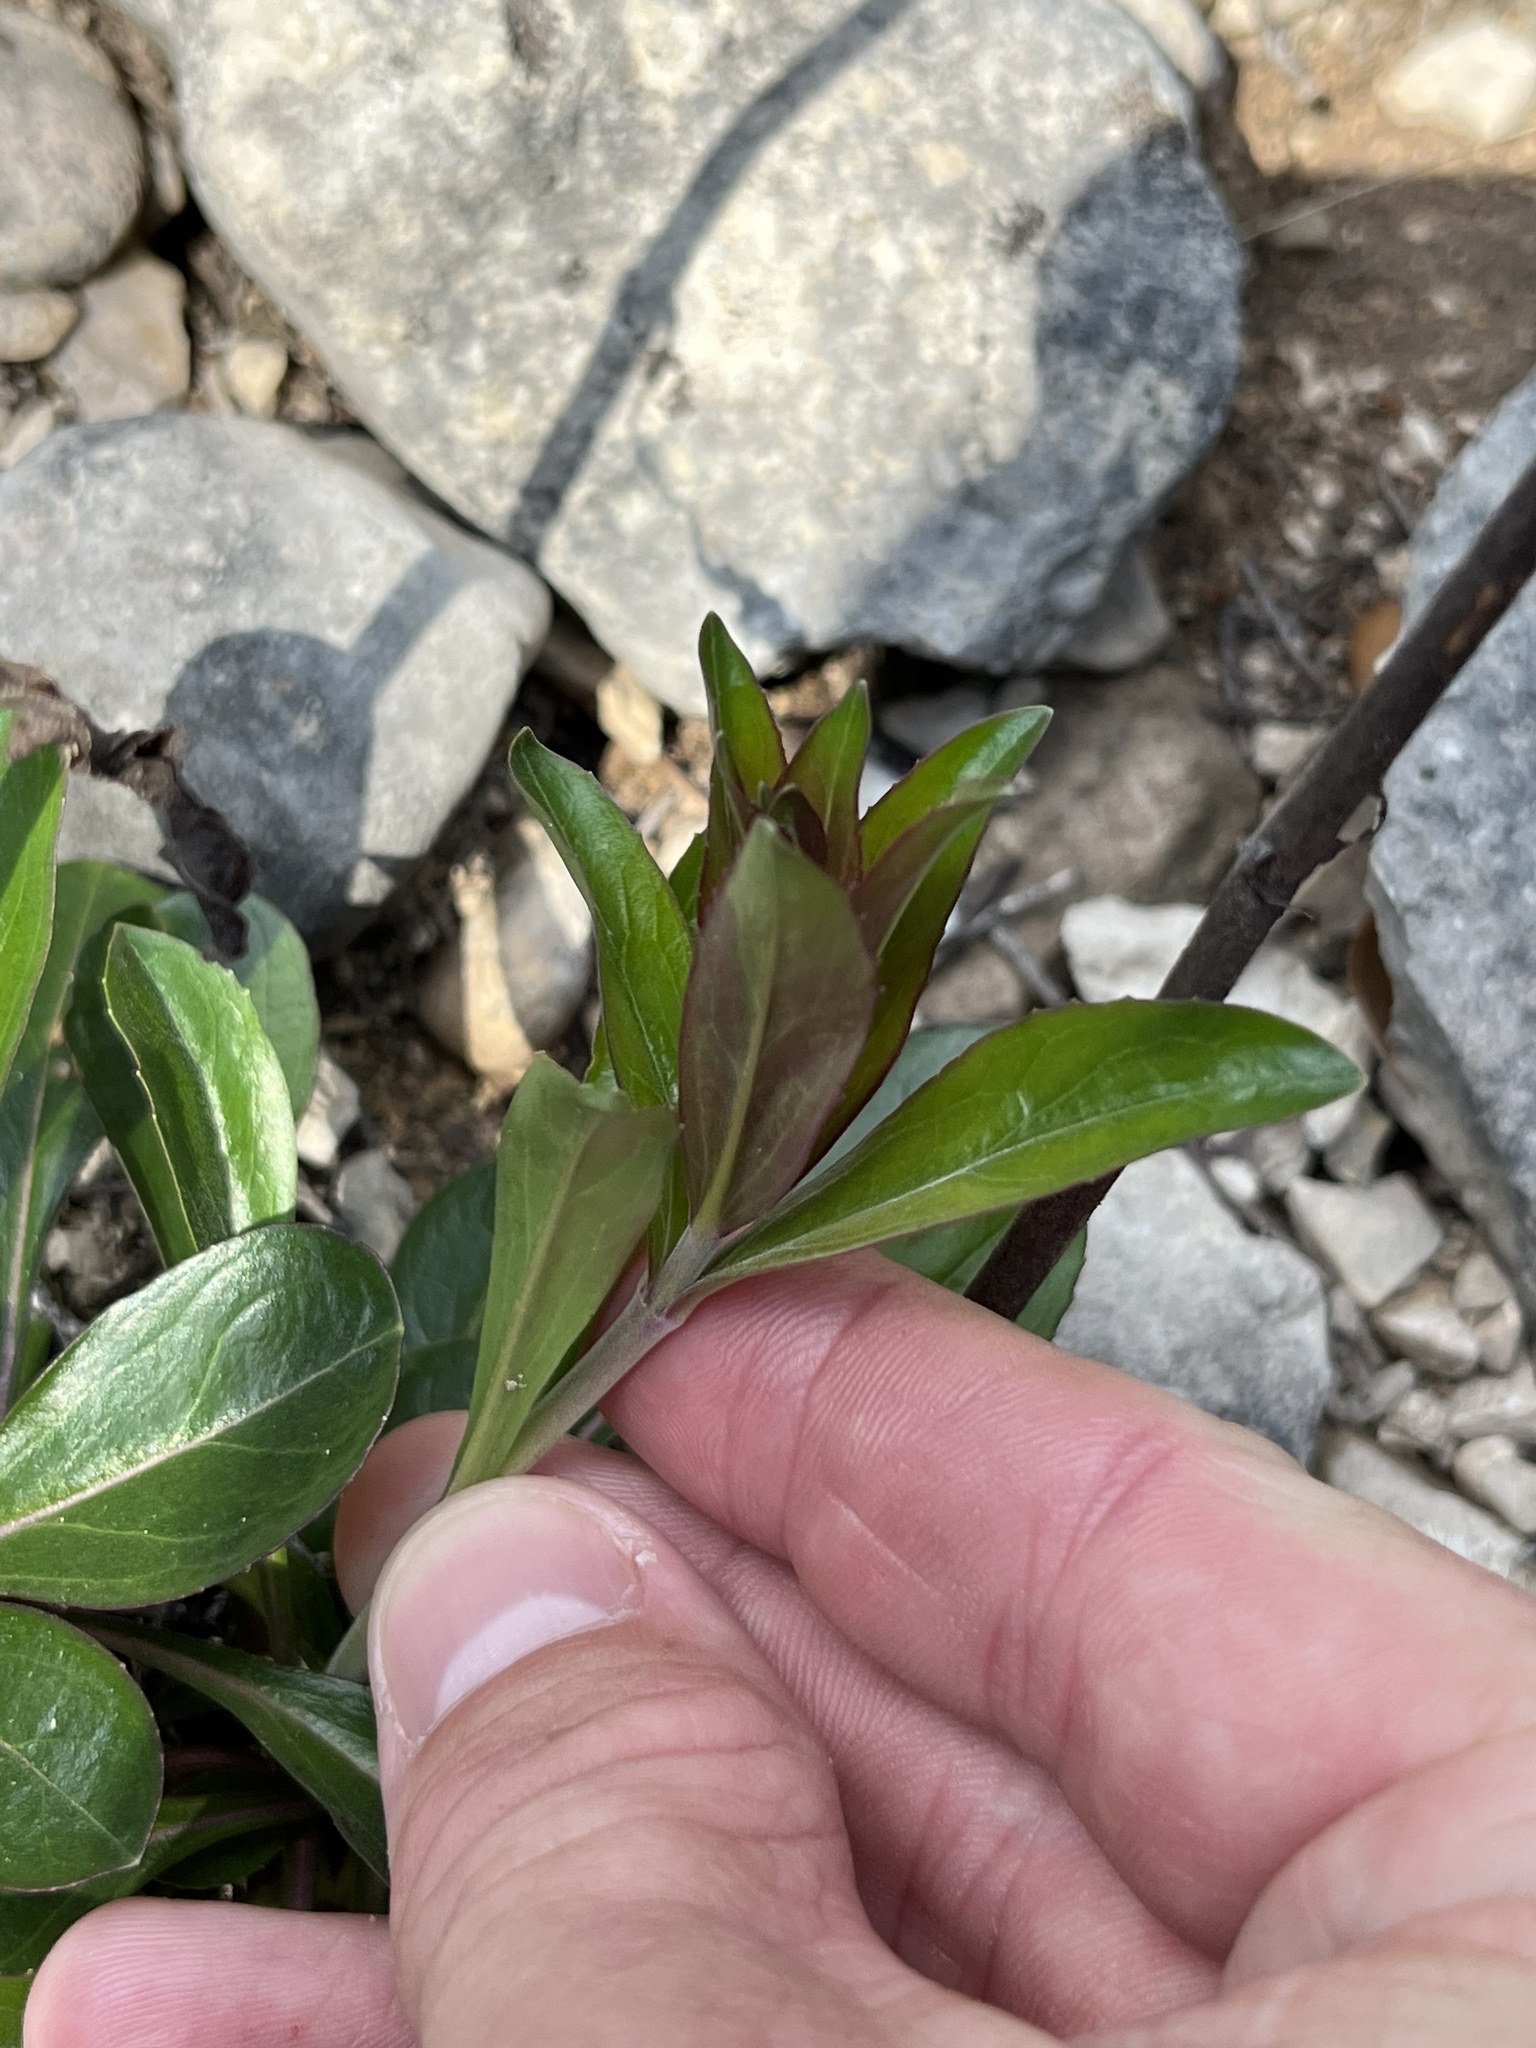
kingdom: Plantae
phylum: Tracheophyta
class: Magnoliopsida
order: Lamiales
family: Plantaginaceae
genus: Penstemon
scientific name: Penstemon triflorus
